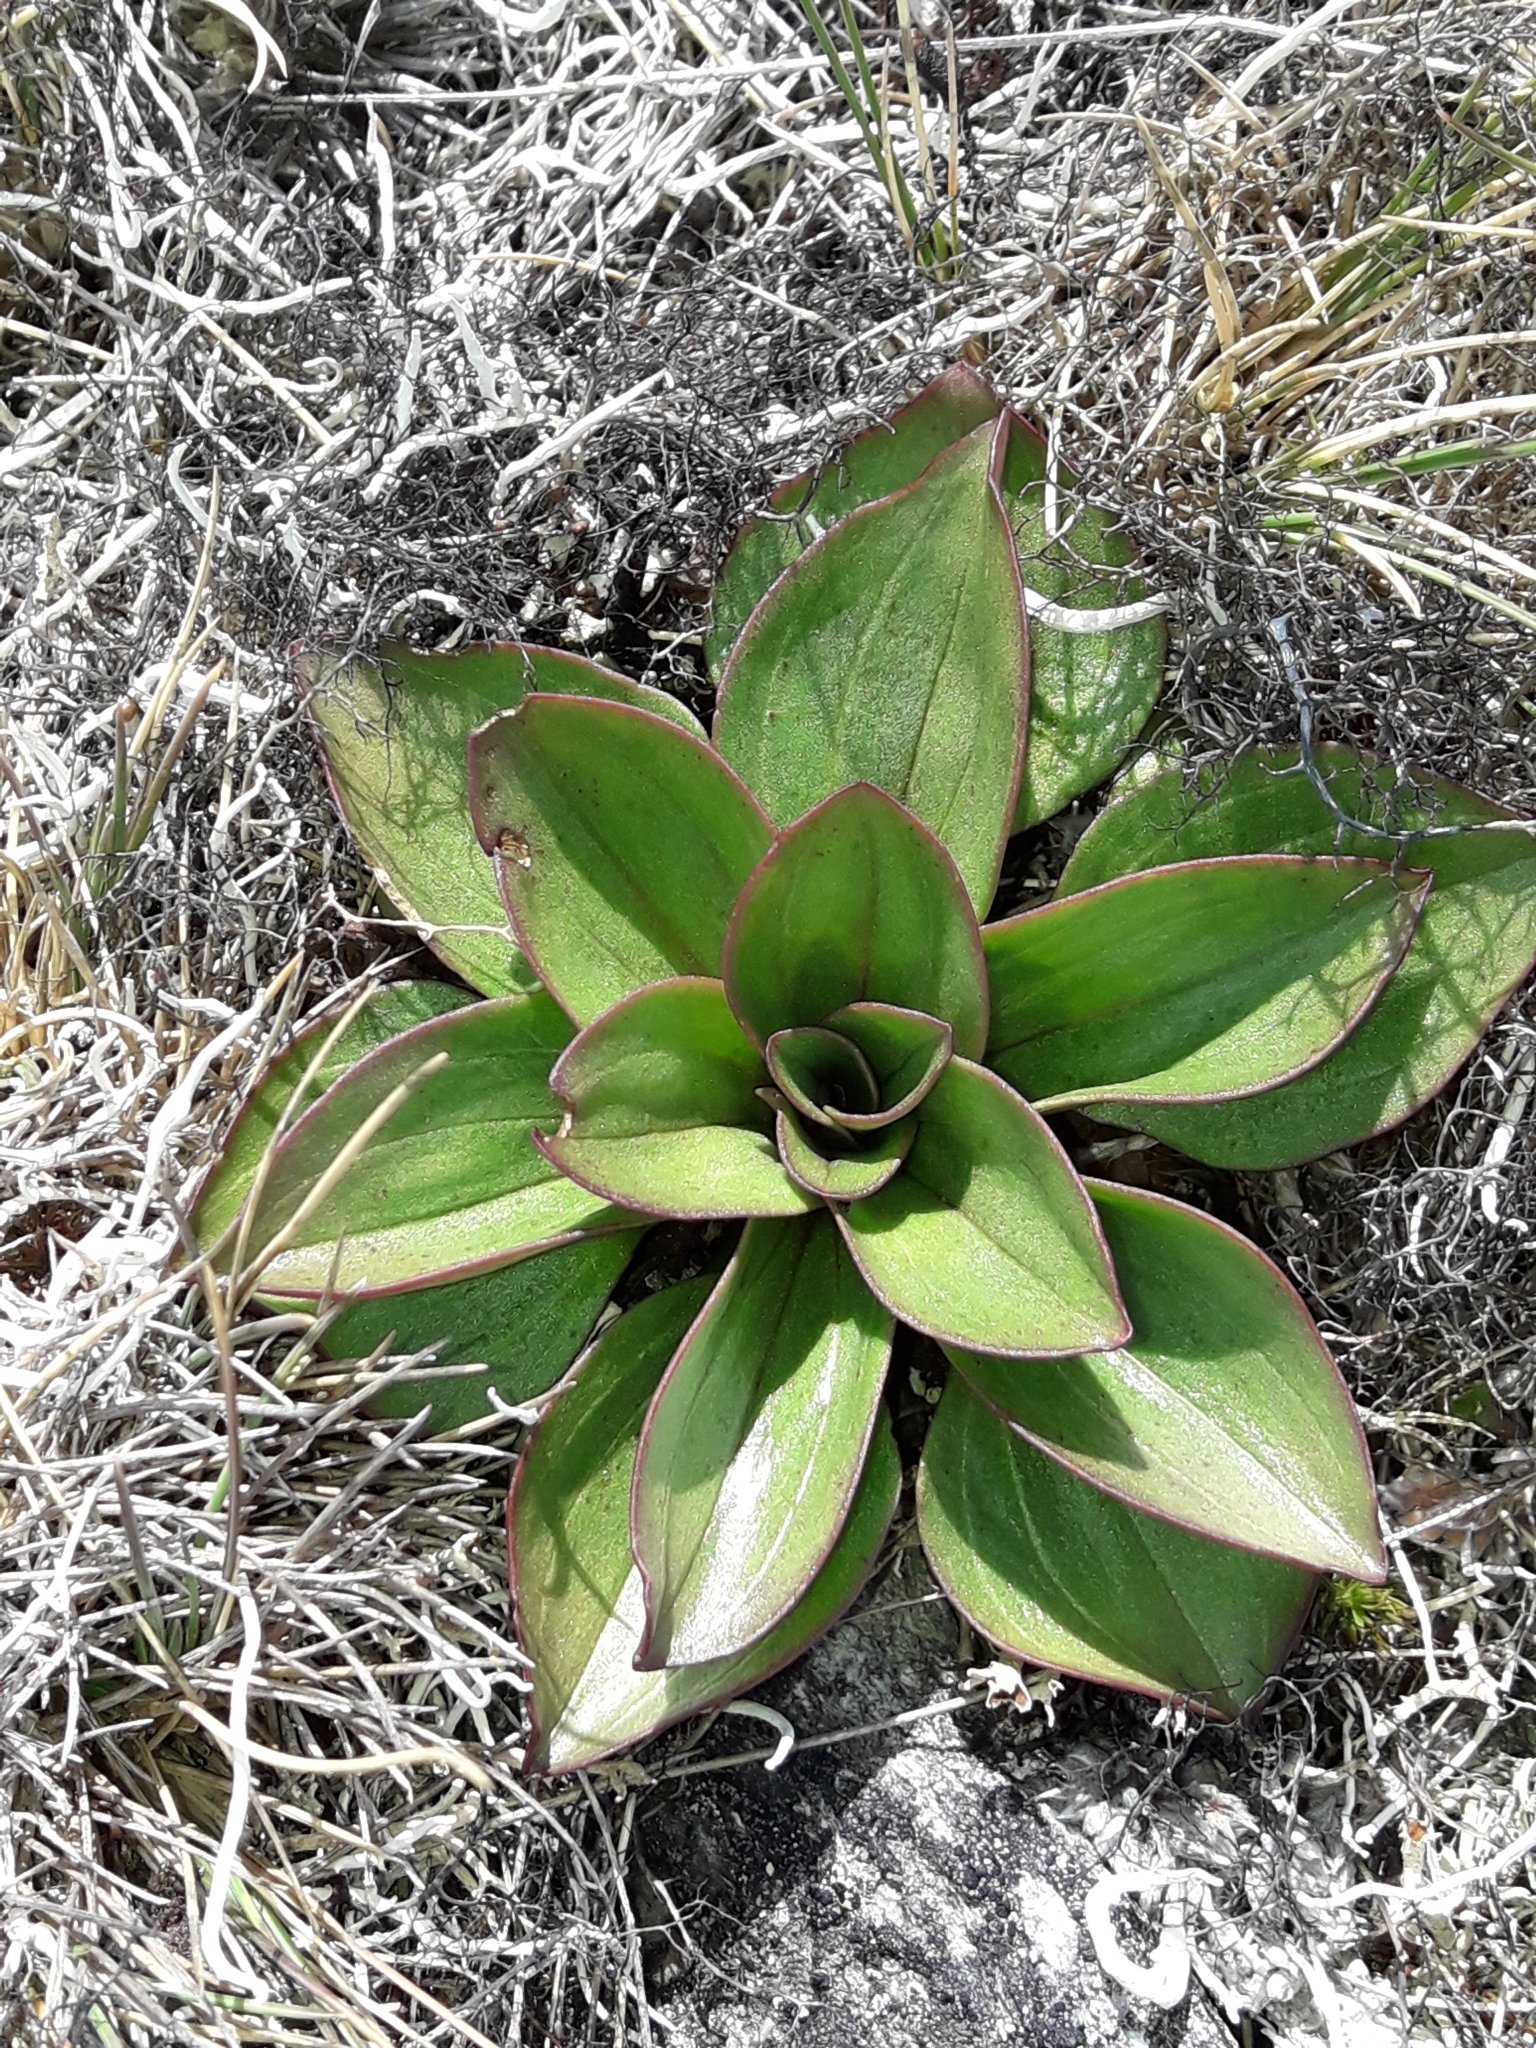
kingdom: Plantae
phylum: Tracheophyta
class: Magnoliopsida
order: Gentianales
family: Gentianaceae
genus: Gentianella
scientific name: Gentianella divisa
